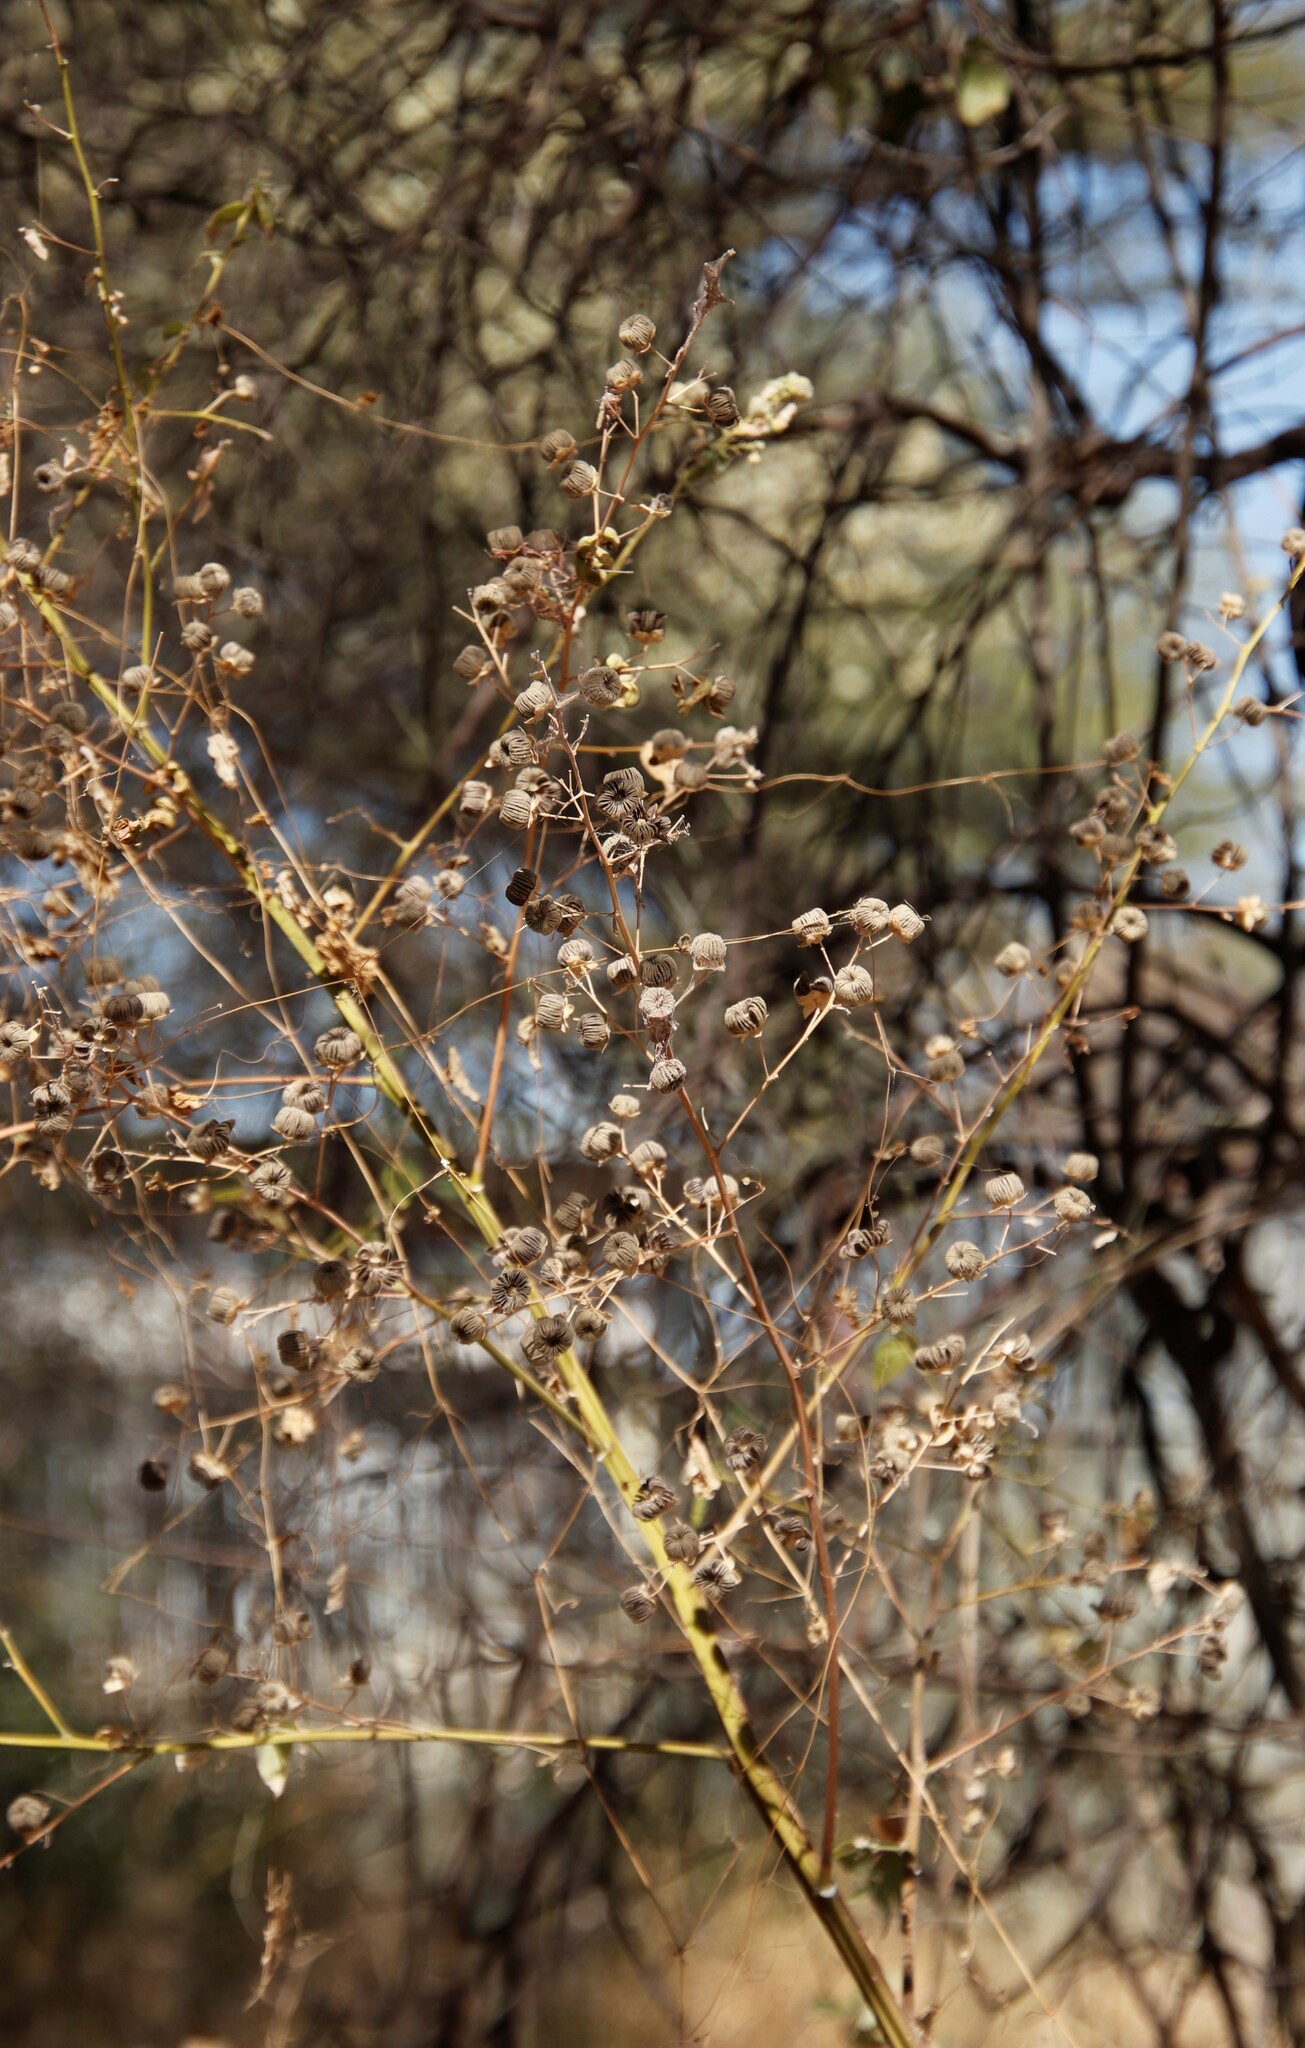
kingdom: Plantae
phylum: Tracheophyta
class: Magnoliopsida
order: Malvales
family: Malvaceae
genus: Abutilon
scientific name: Abutilon angulatum
